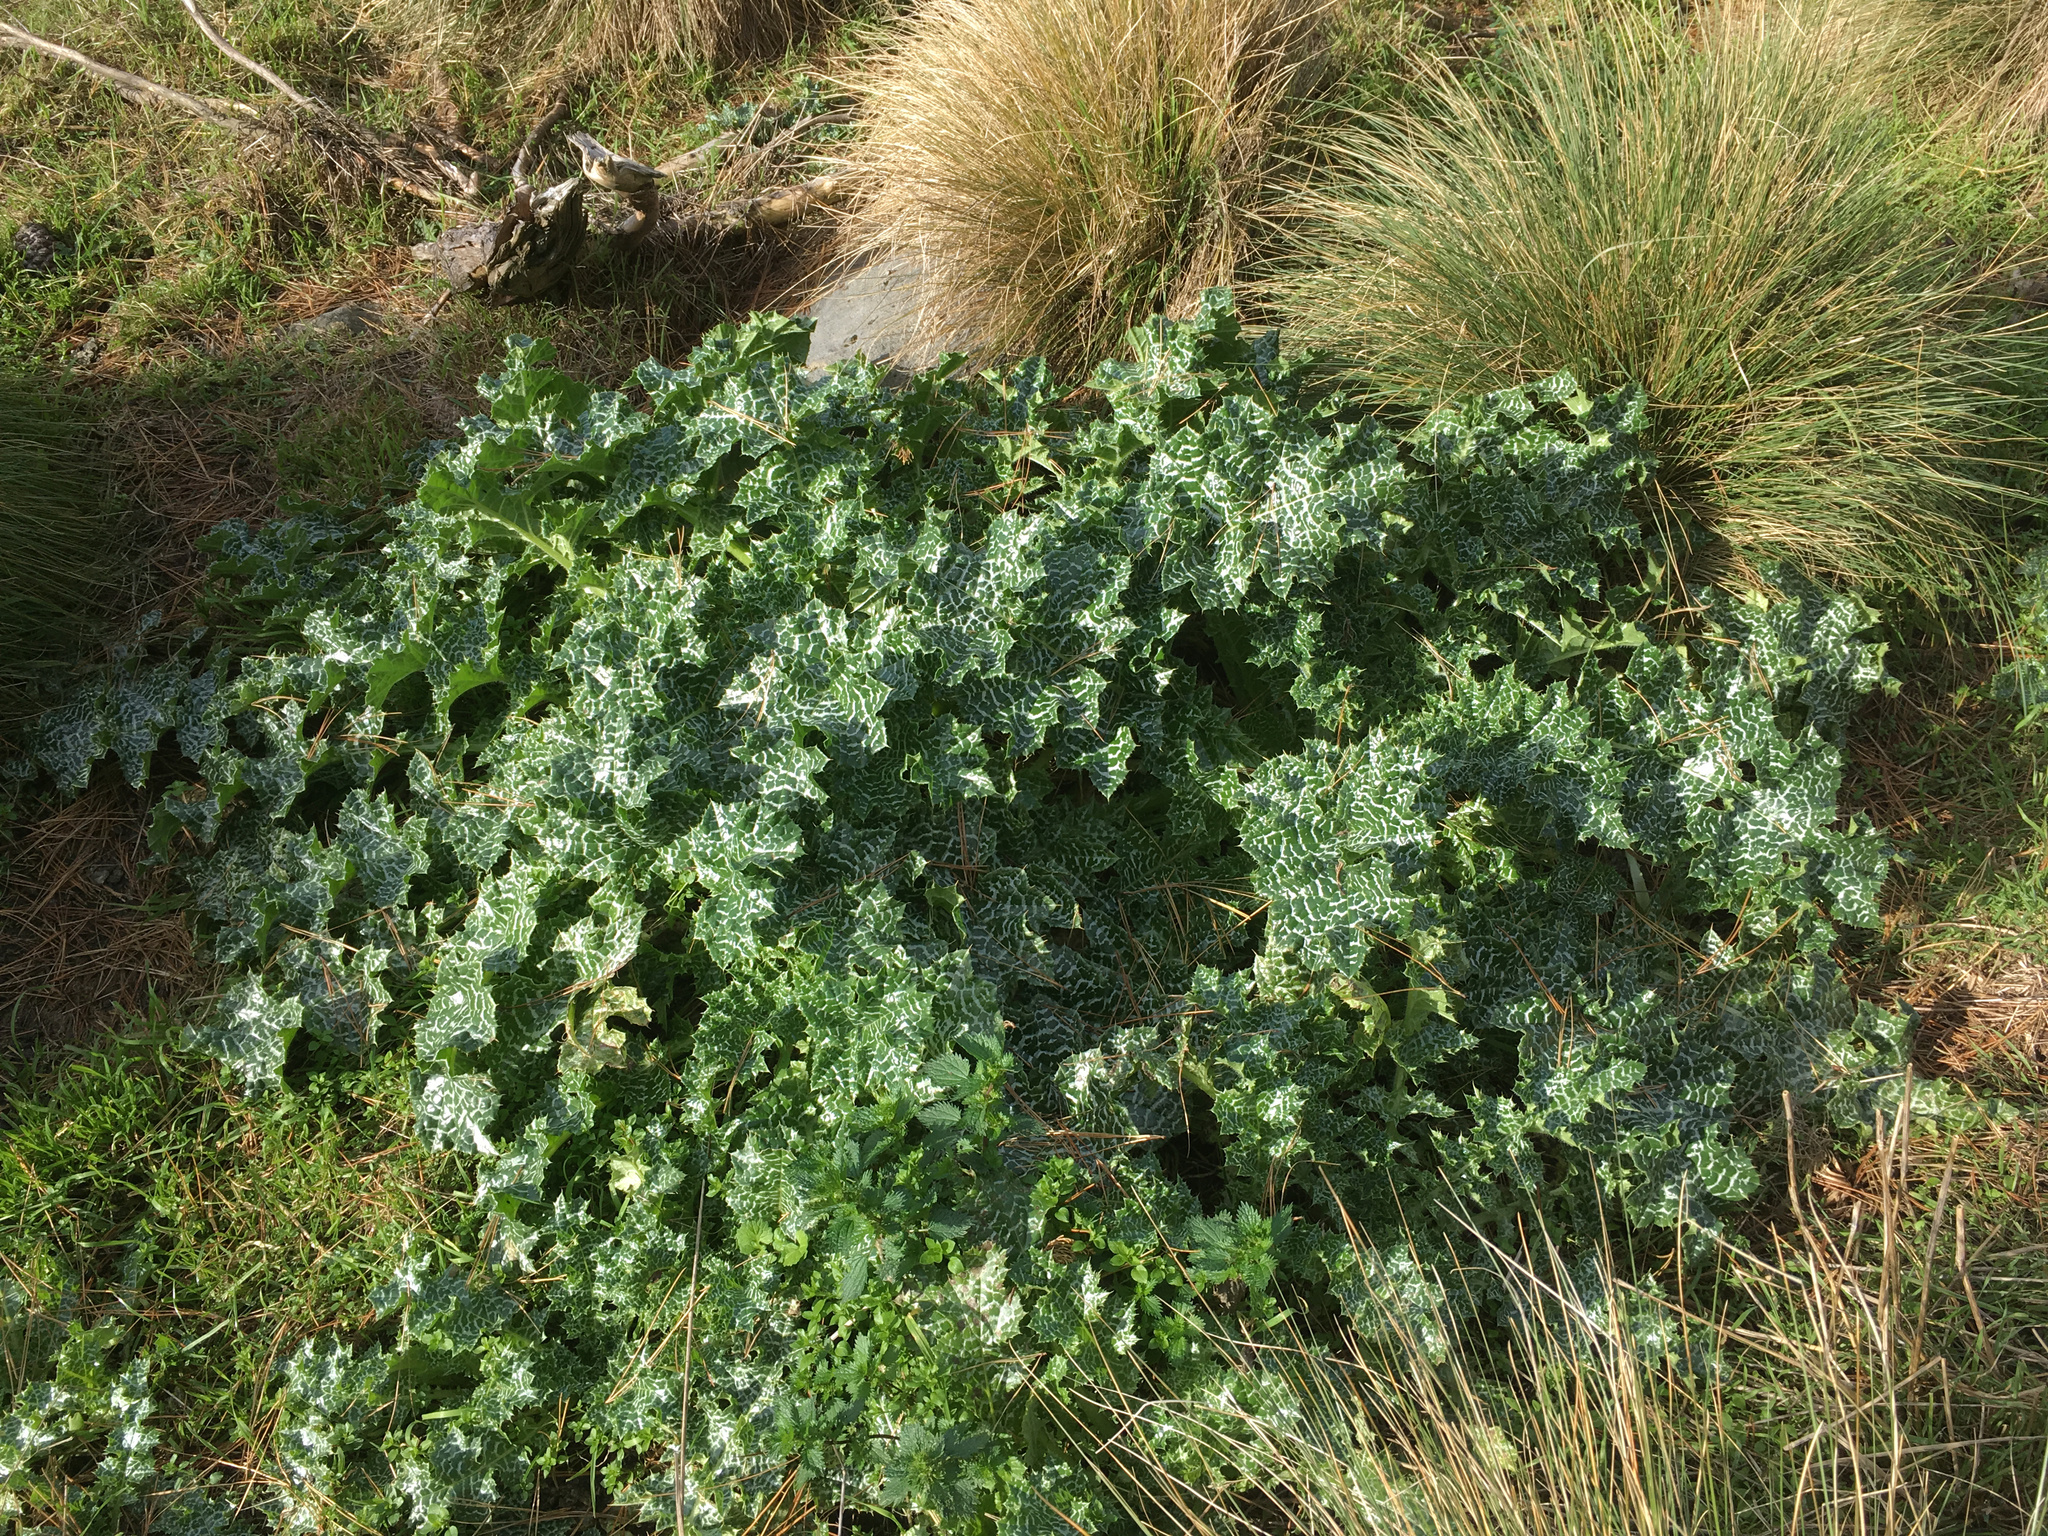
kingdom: Plantae
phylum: Tracheophyta
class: Magnoliopsida
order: Asterales
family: Asteraceae
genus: Silybum
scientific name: Silybum marianum
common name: Milk thistle
